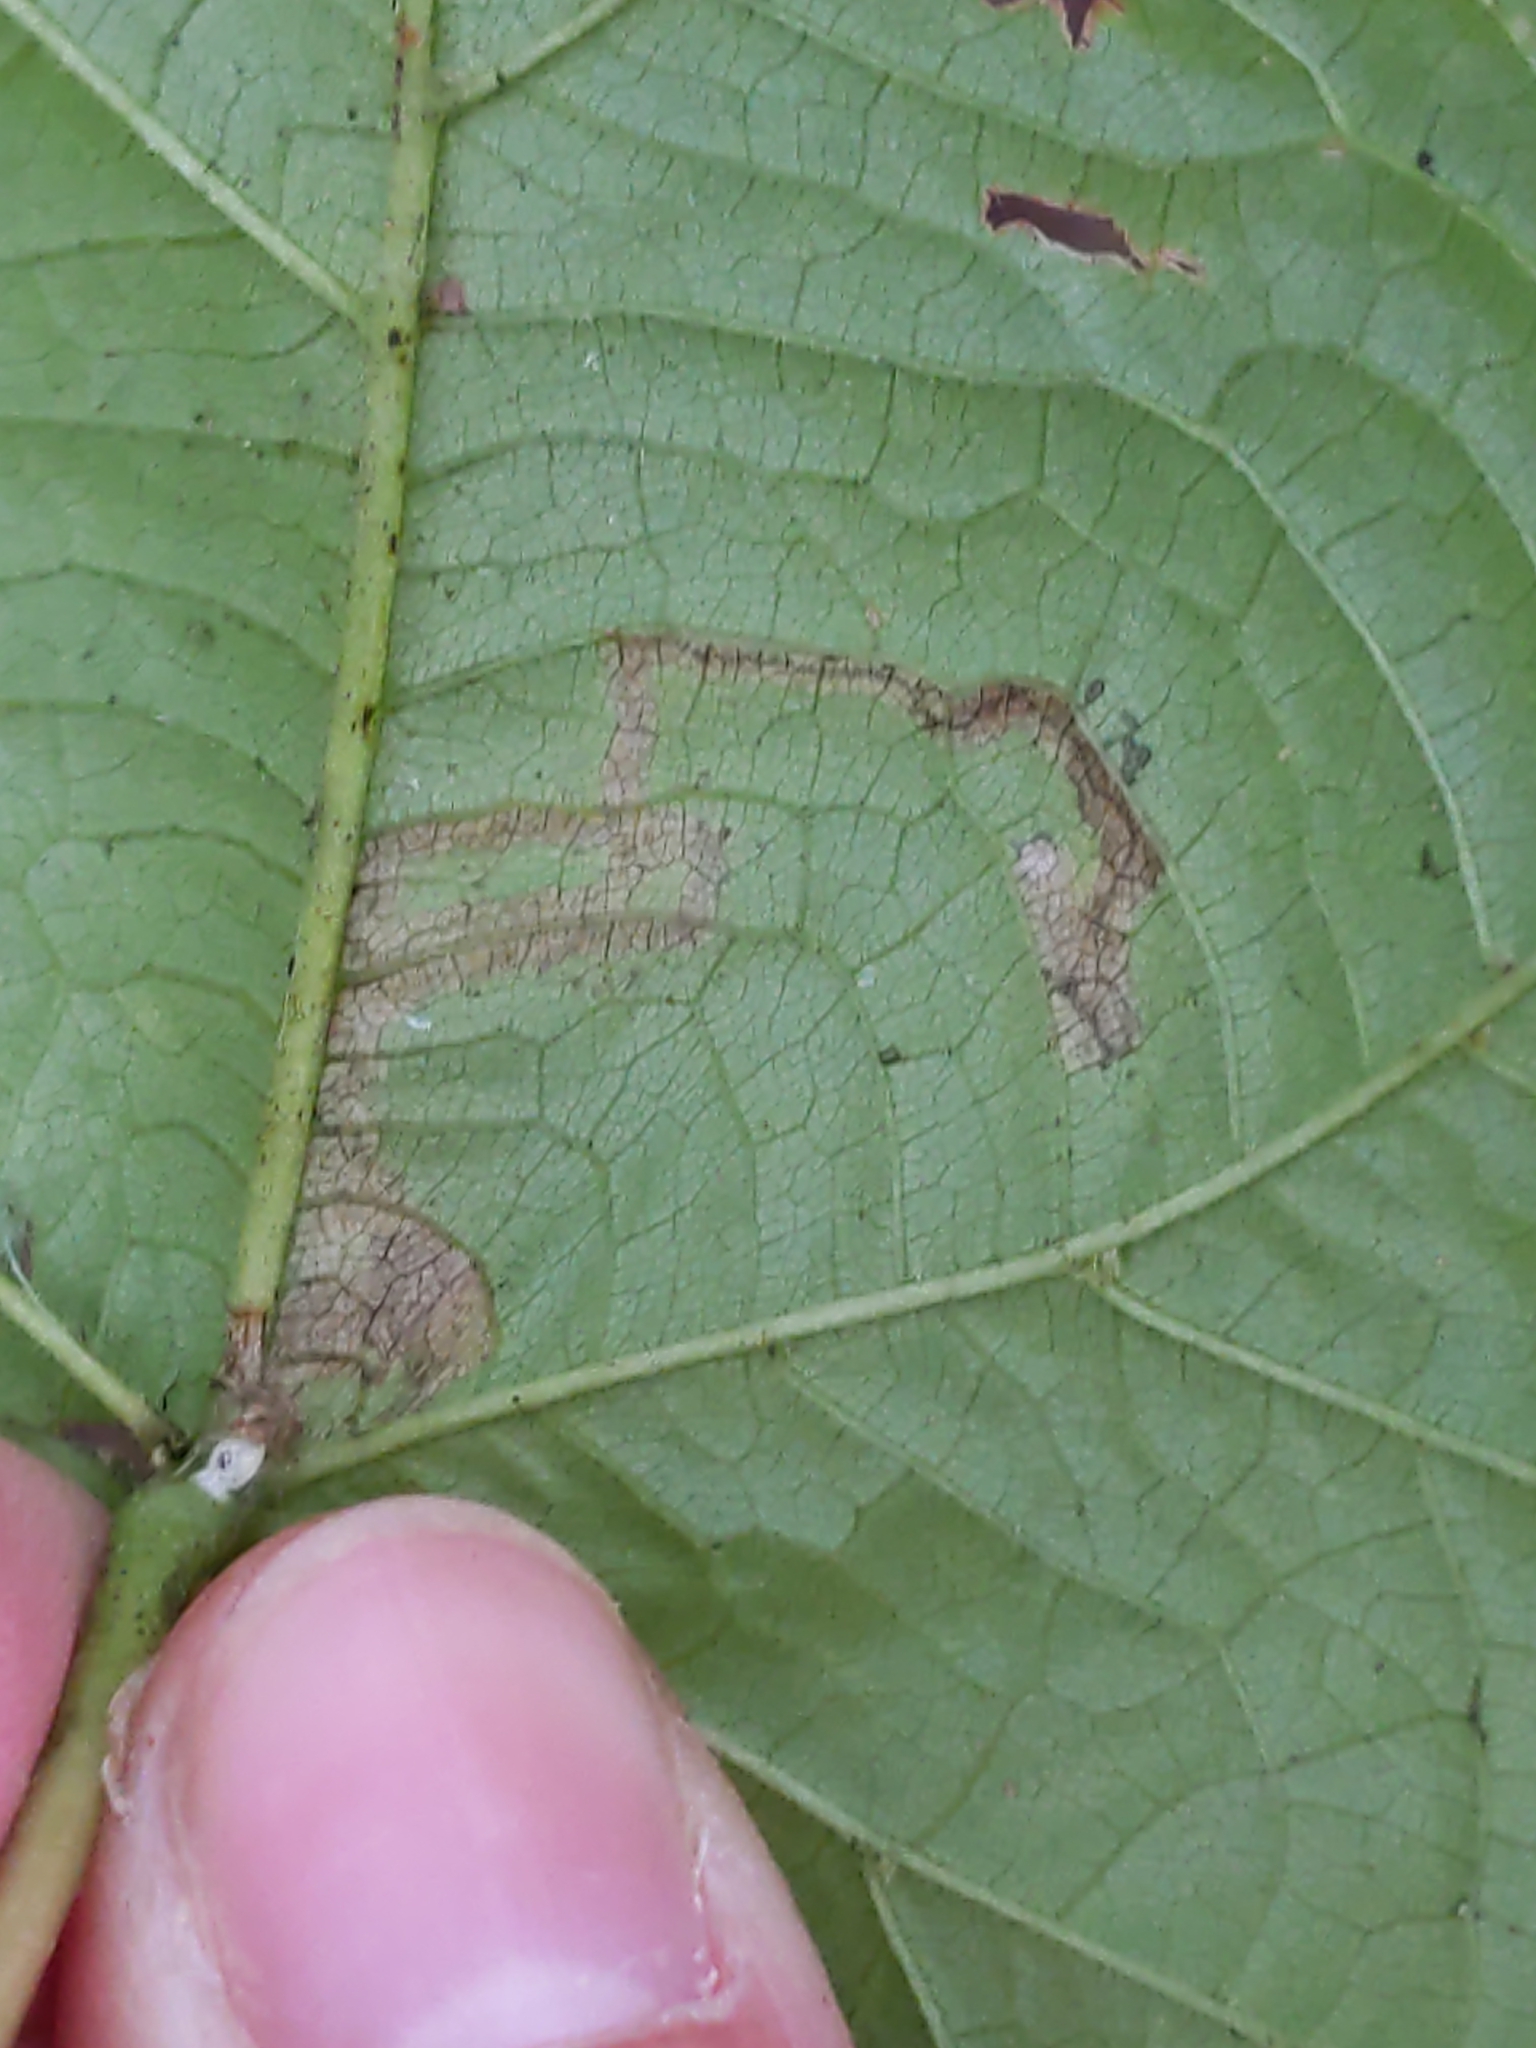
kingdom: Animalia
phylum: Arthropoda
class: Insecta
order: Lepidoptera
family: Nepticulidae
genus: Stigmella
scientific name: Stigmella tiliella
